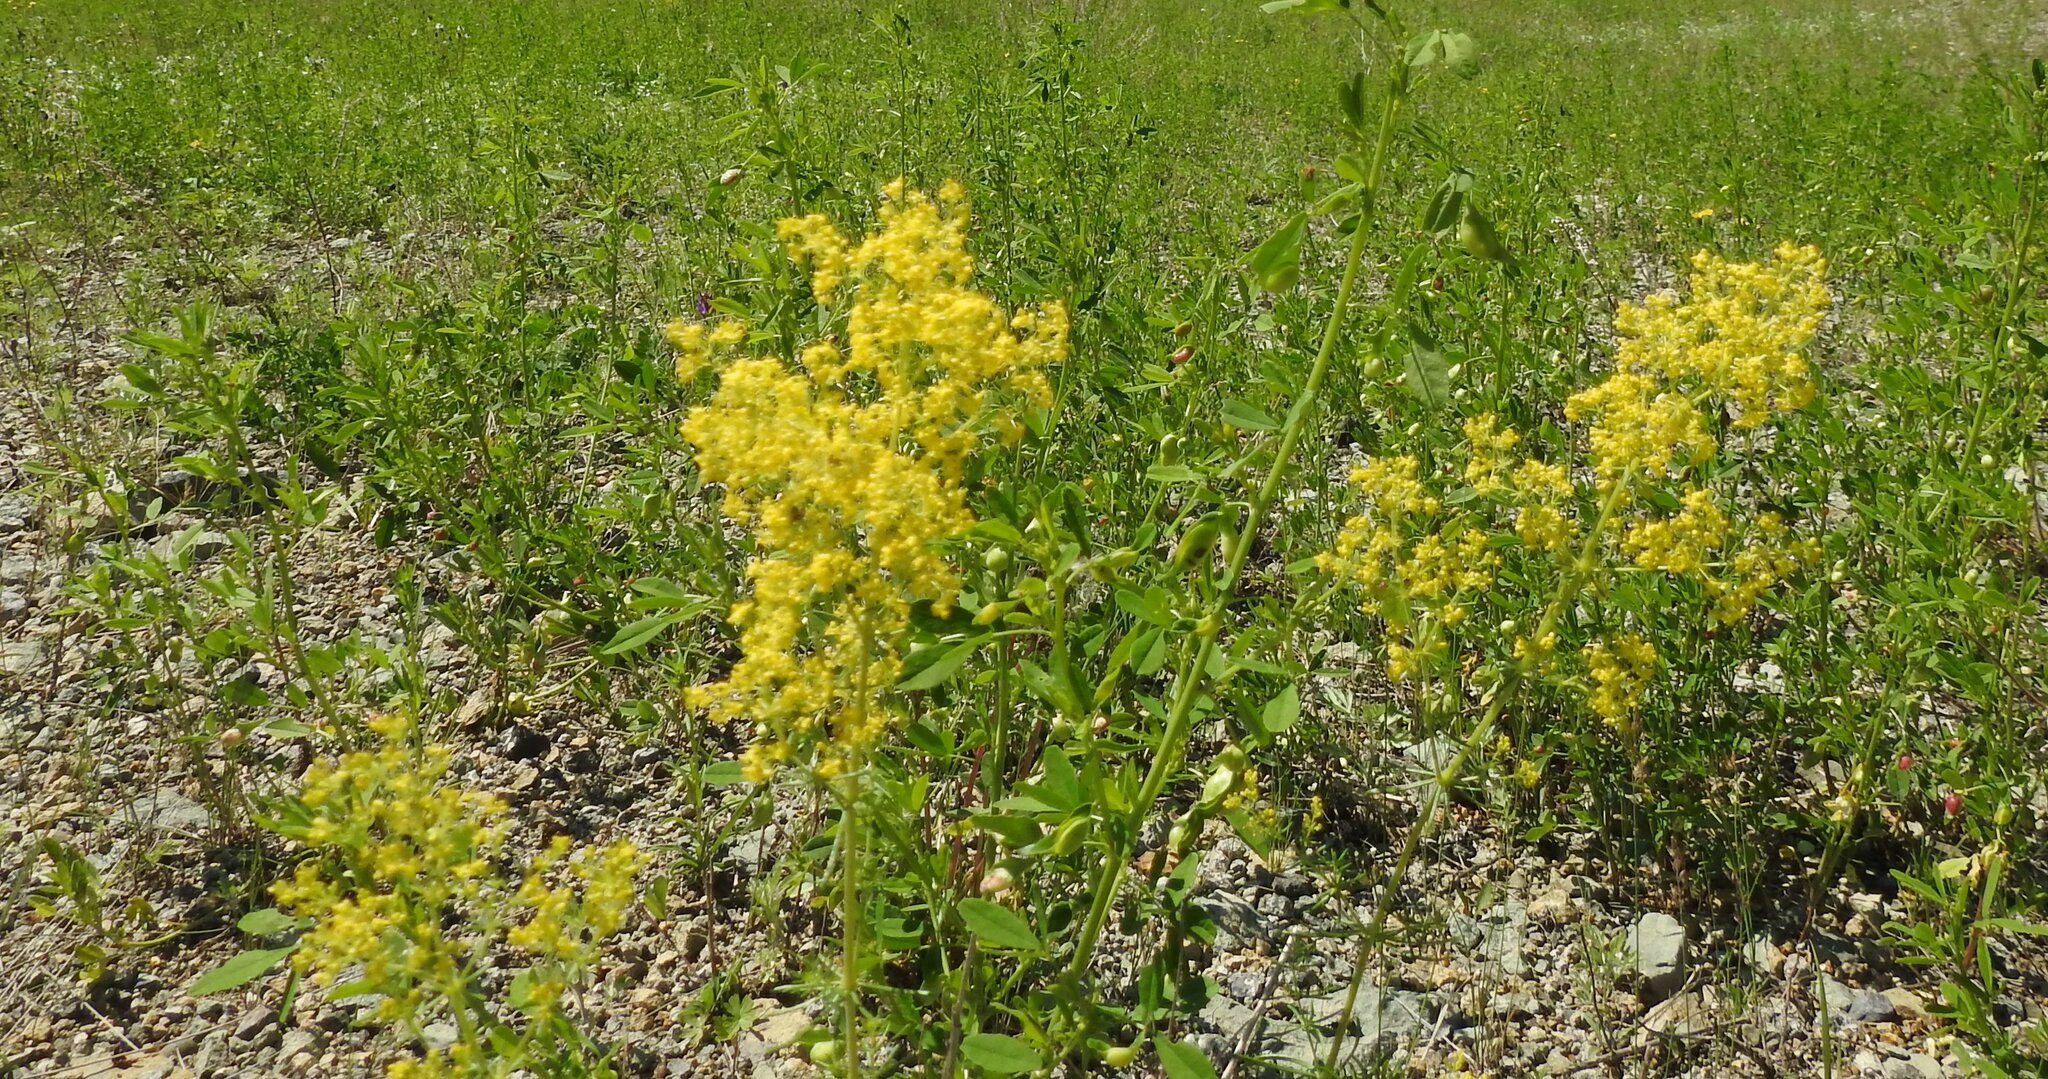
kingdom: Plantae
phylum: Tracheophyta
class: Magnoliopsida
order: Gentianales
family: Rubiaceae
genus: Galium
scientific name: Galium verum
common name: Lady's bedstraw
